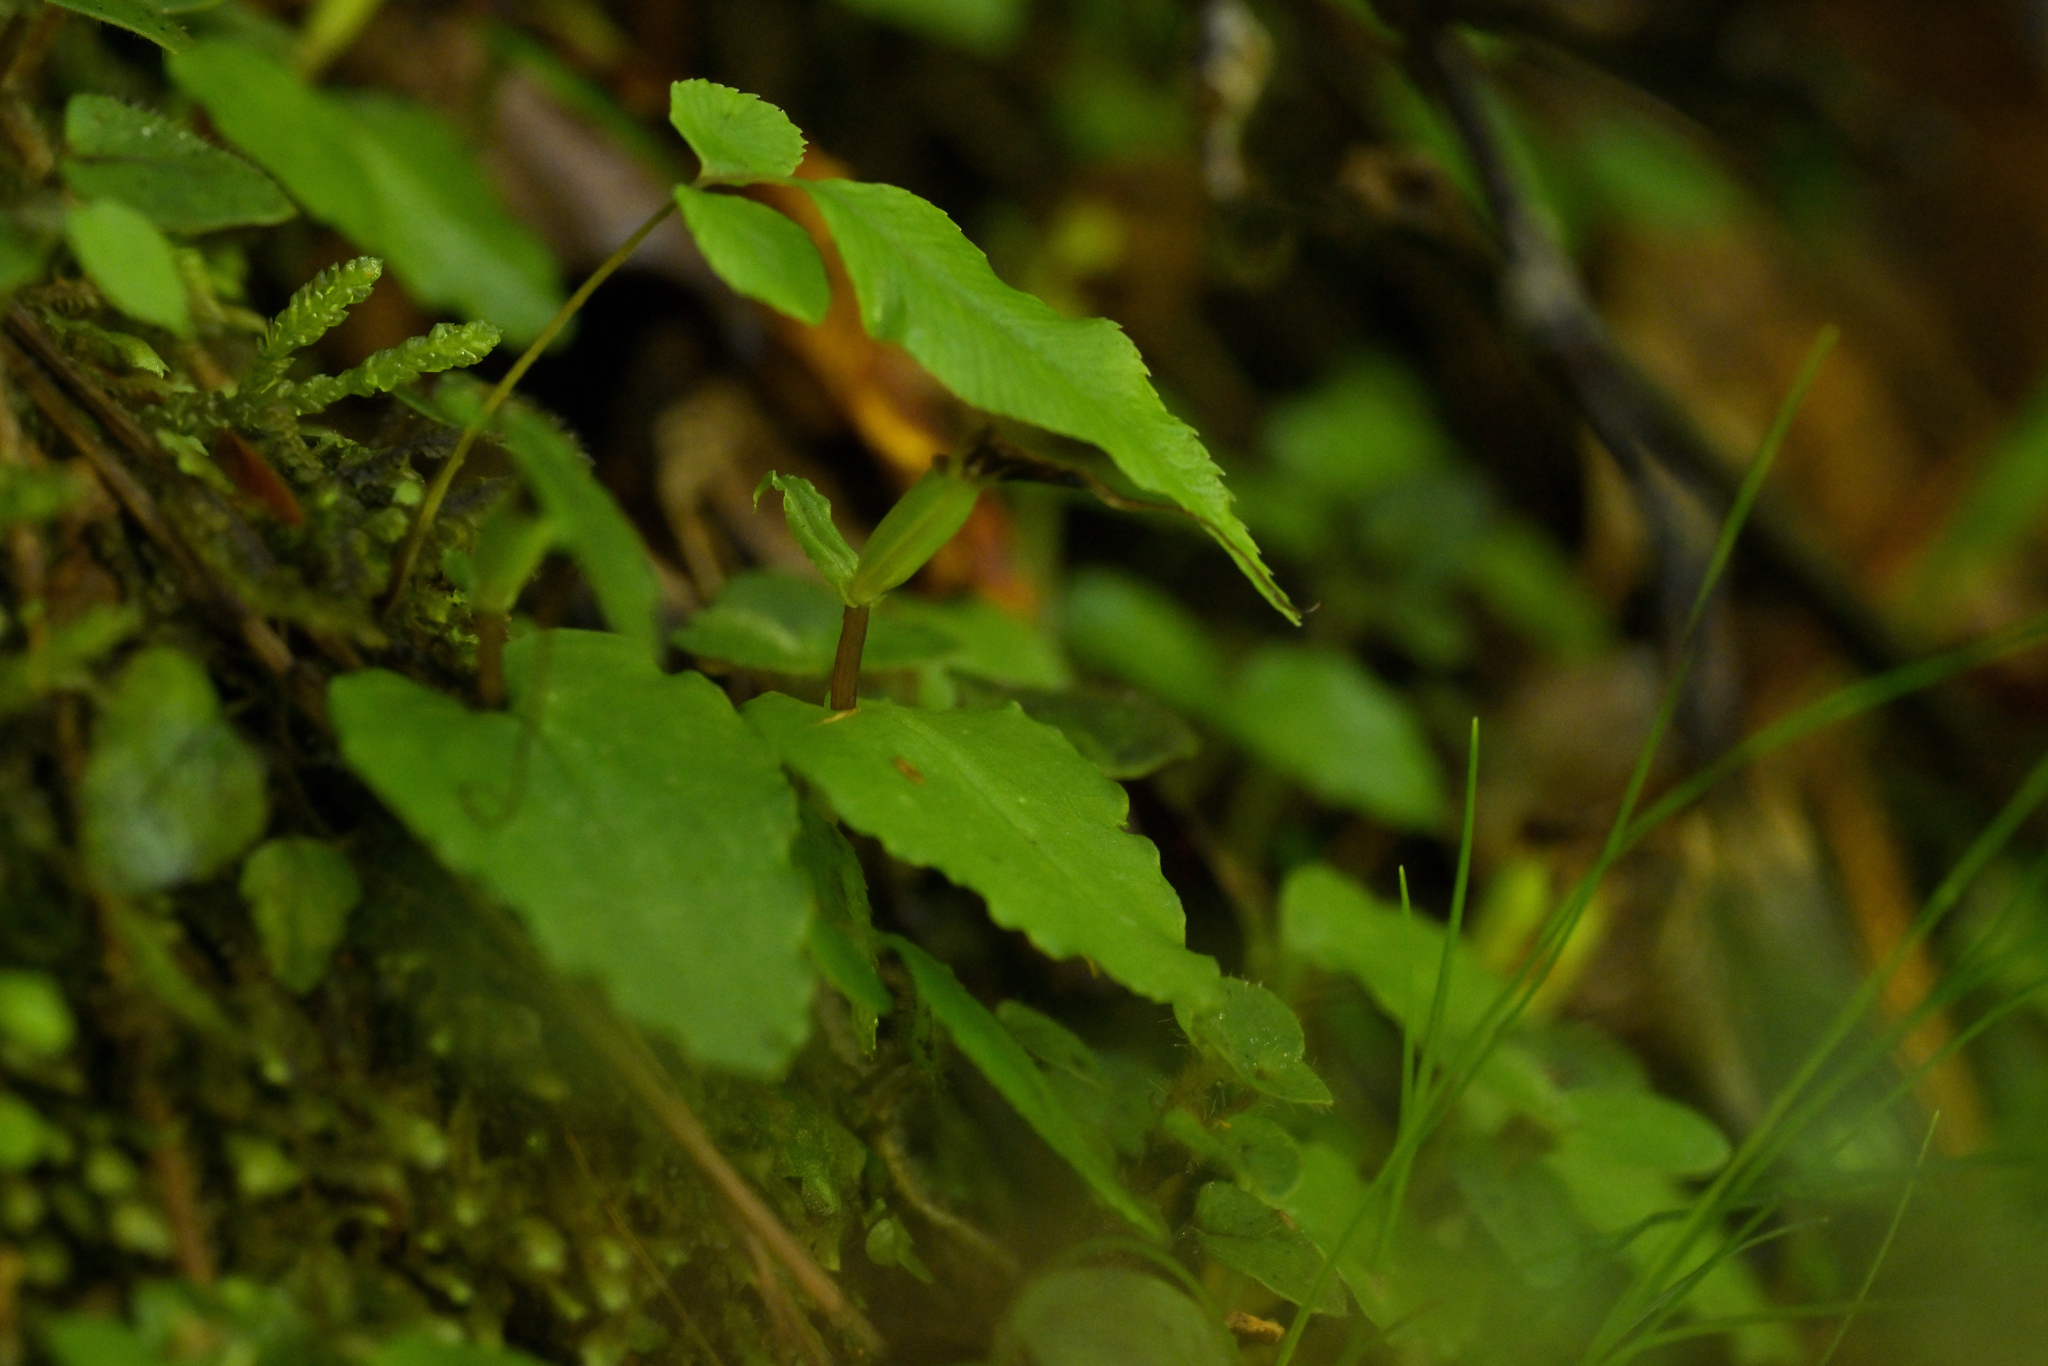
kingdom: Plantae
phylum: Tracheophyta
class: Liliopsida
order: Asparagales
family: Orchidaceae
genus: Corybas
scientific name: Corybas acuminatus
